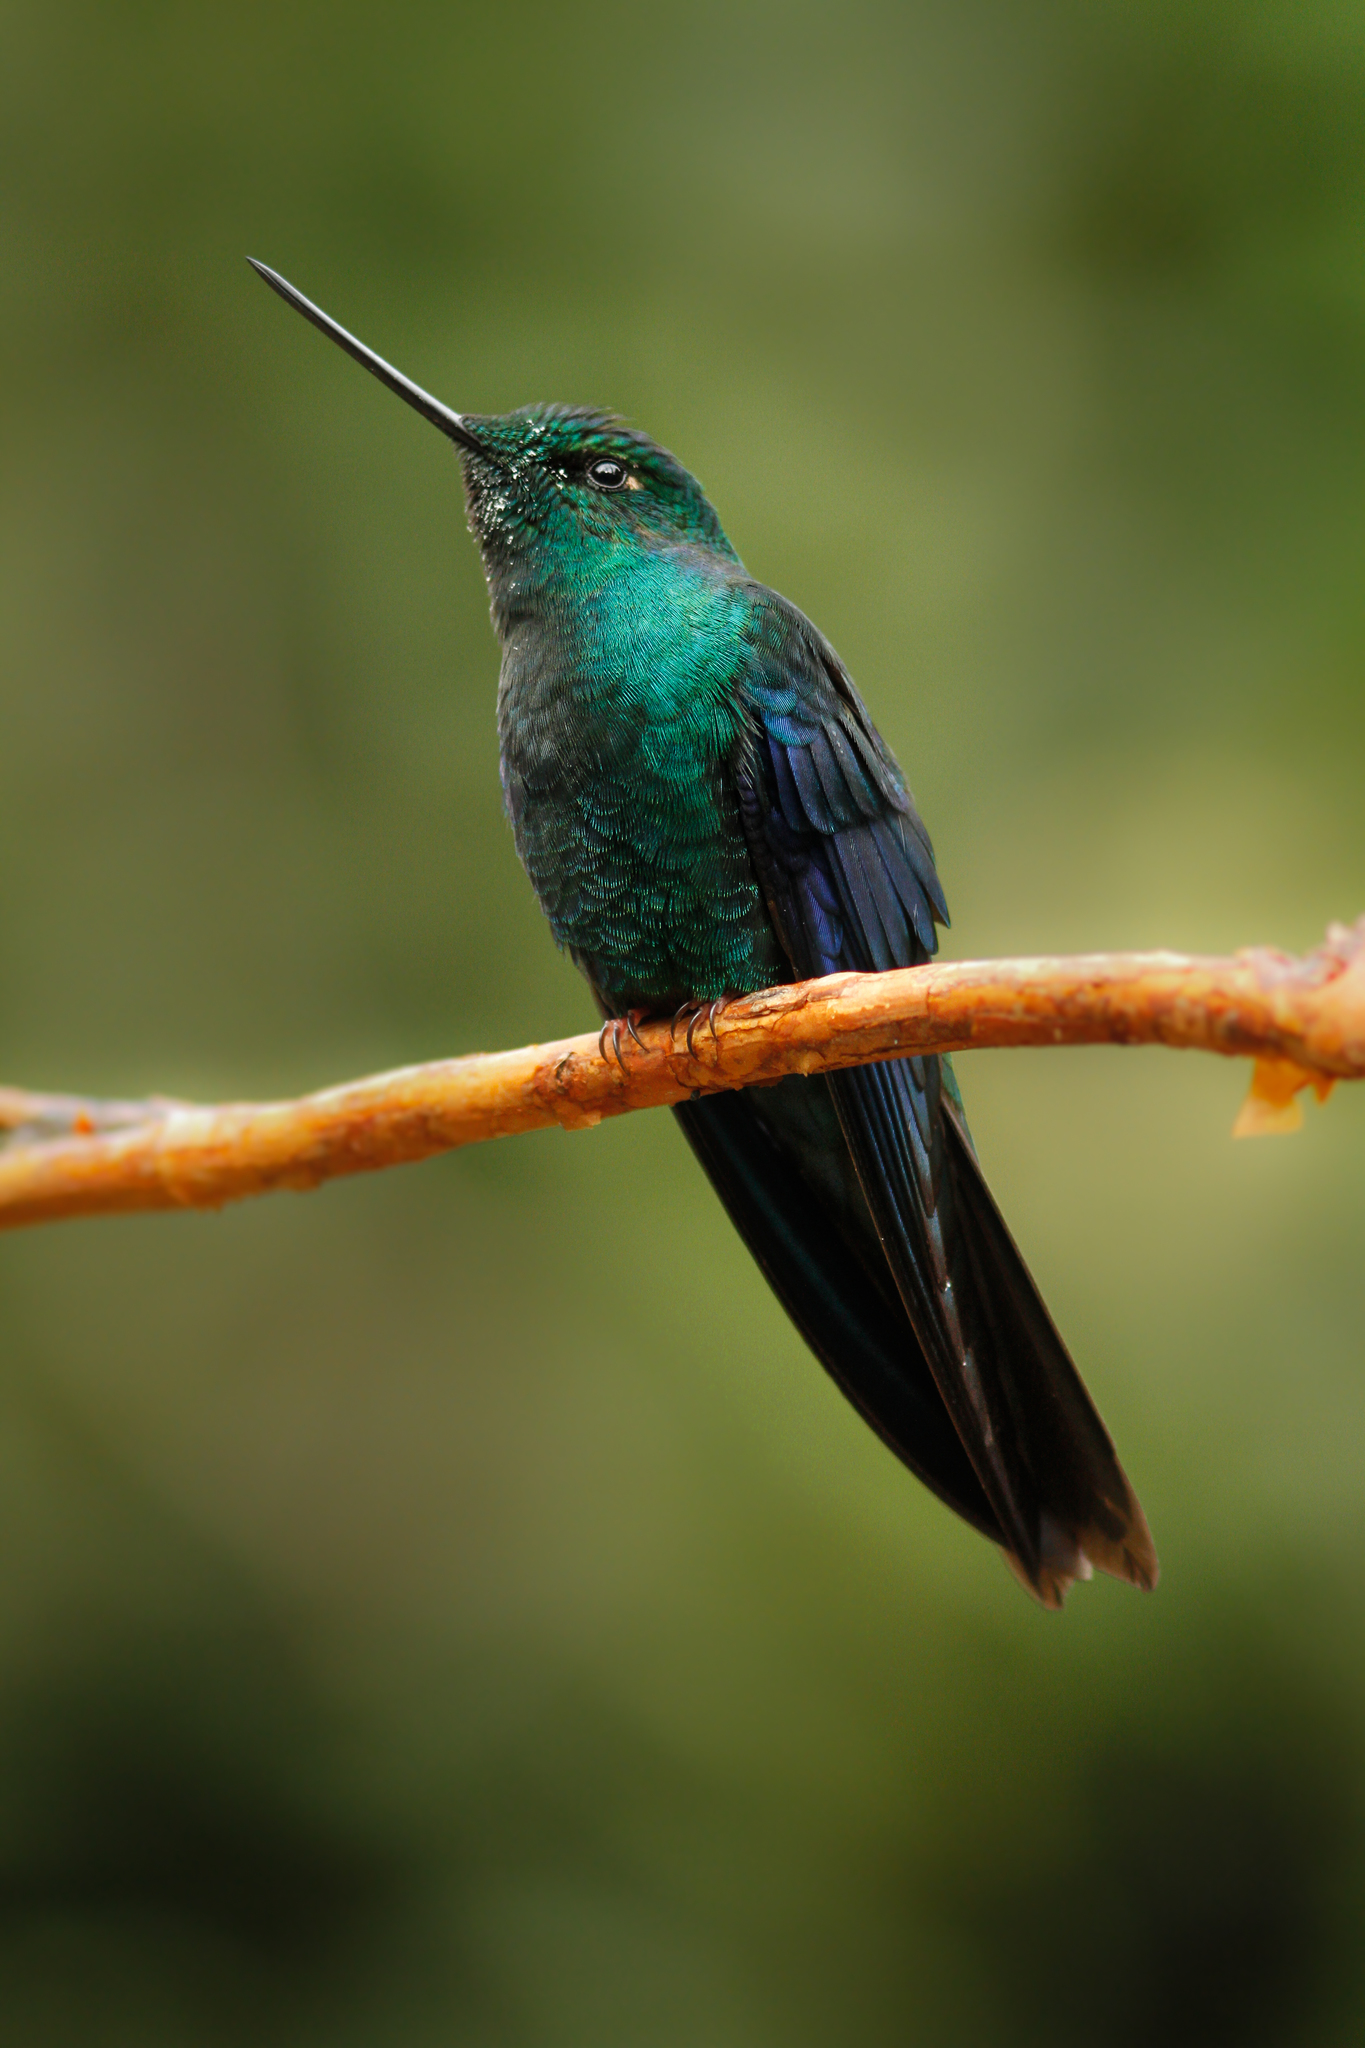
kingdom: Animalia
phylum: Chordata
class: Aves
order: Apodiformes
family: Trochilidae
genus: Pterophanes
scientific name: Pterophanes cyanopterus
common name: Great sapphirewing
